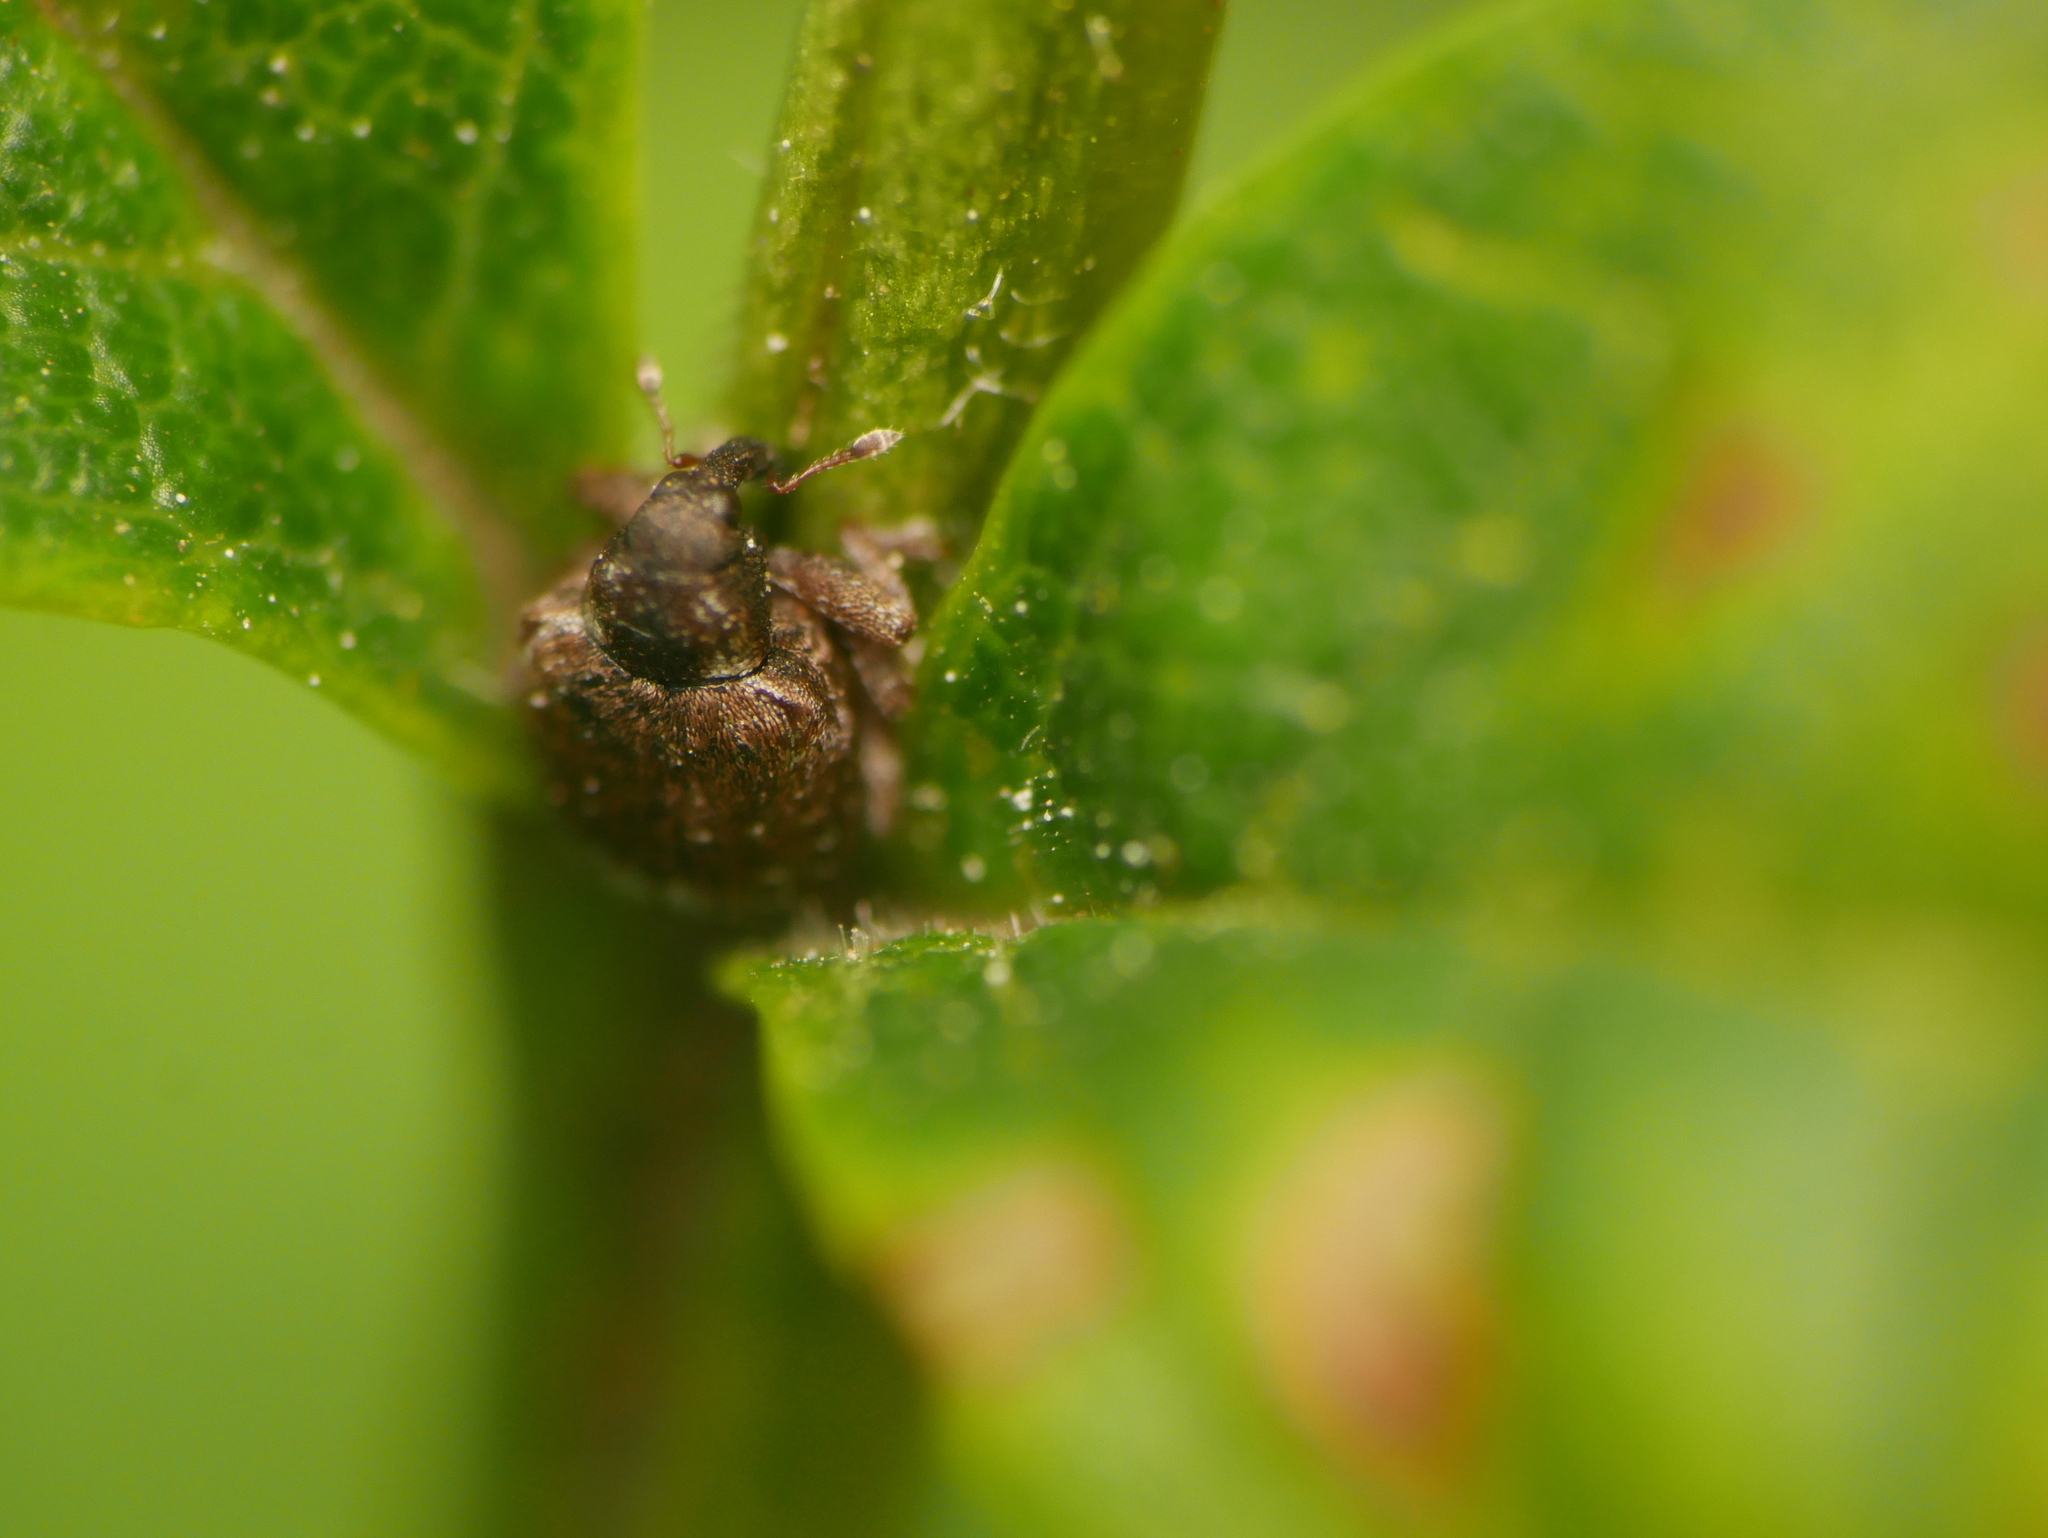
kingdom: Animalia
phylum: Arthropoda
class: Insecta
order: Coleoptera
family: Curculionidae
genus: Stereonychus
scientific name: Stereonychus fraxini
